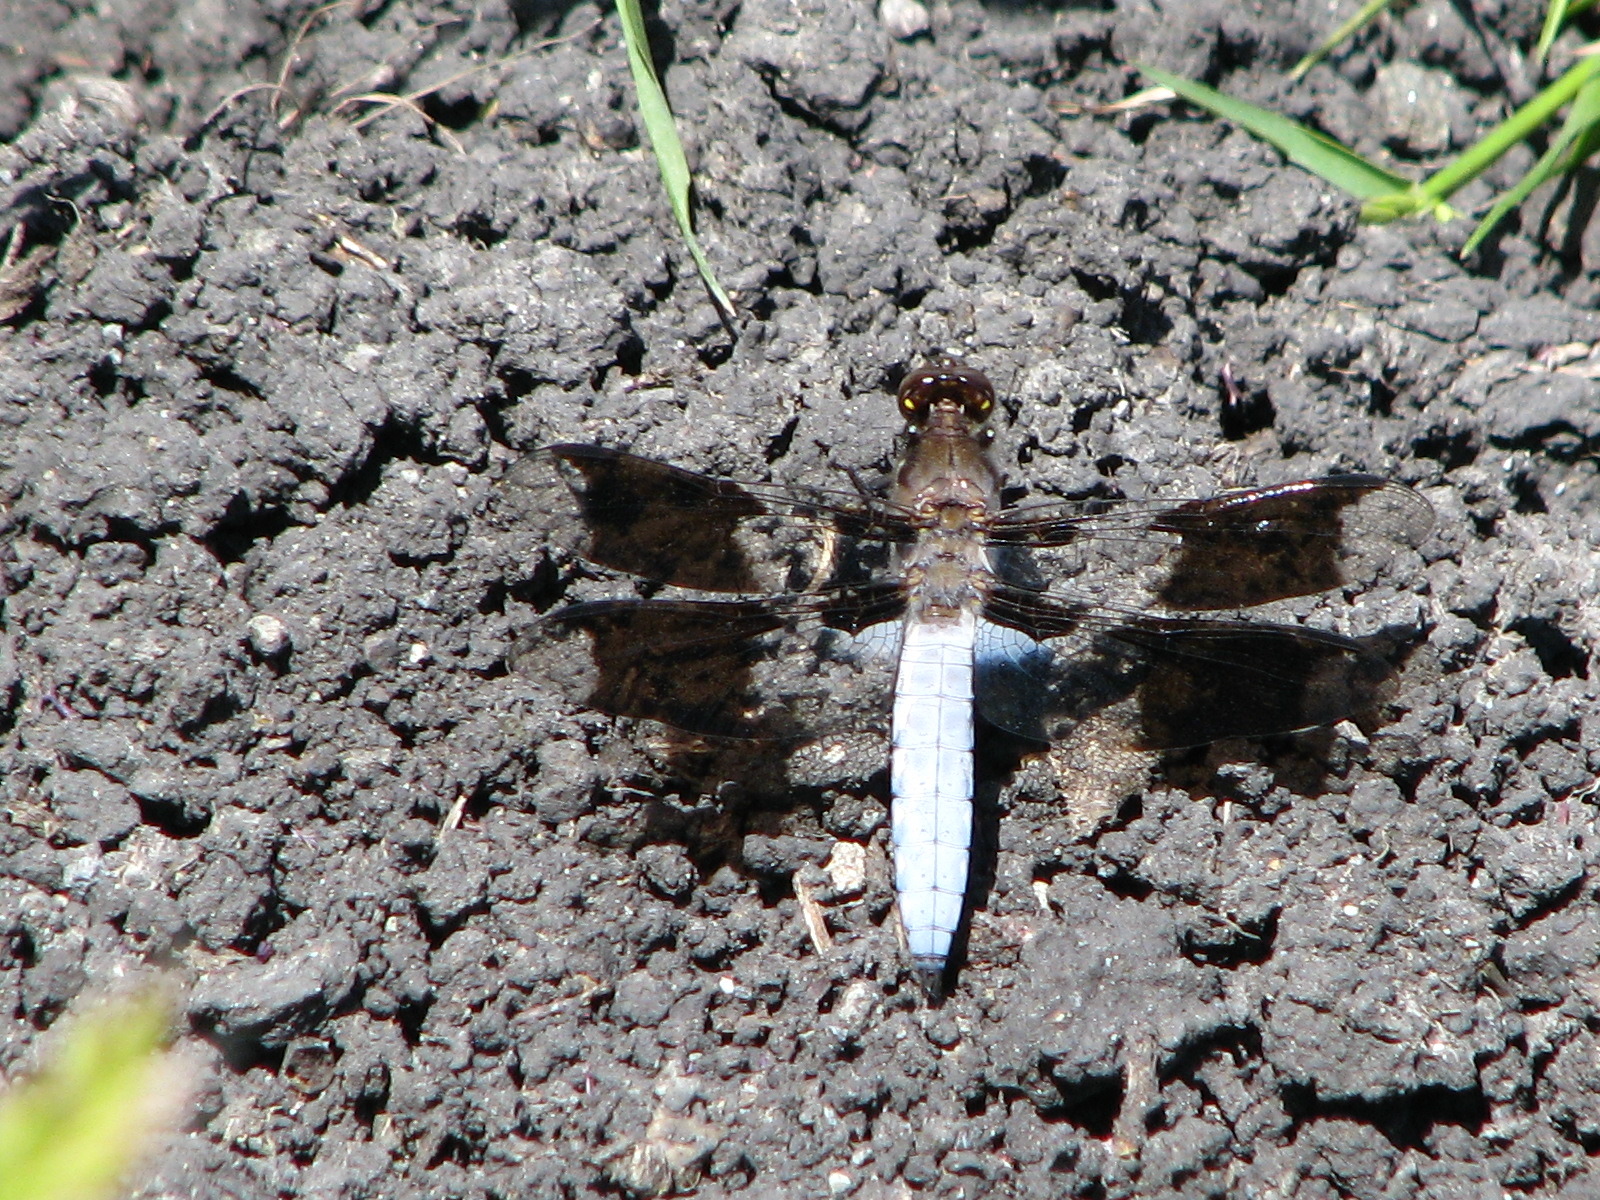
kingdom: Animalia
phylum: Arthropoda
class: Insecta
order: Odonata
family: Libellulidae
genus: Plathemis
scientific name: Plathemis lydia
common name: Common whitetail
